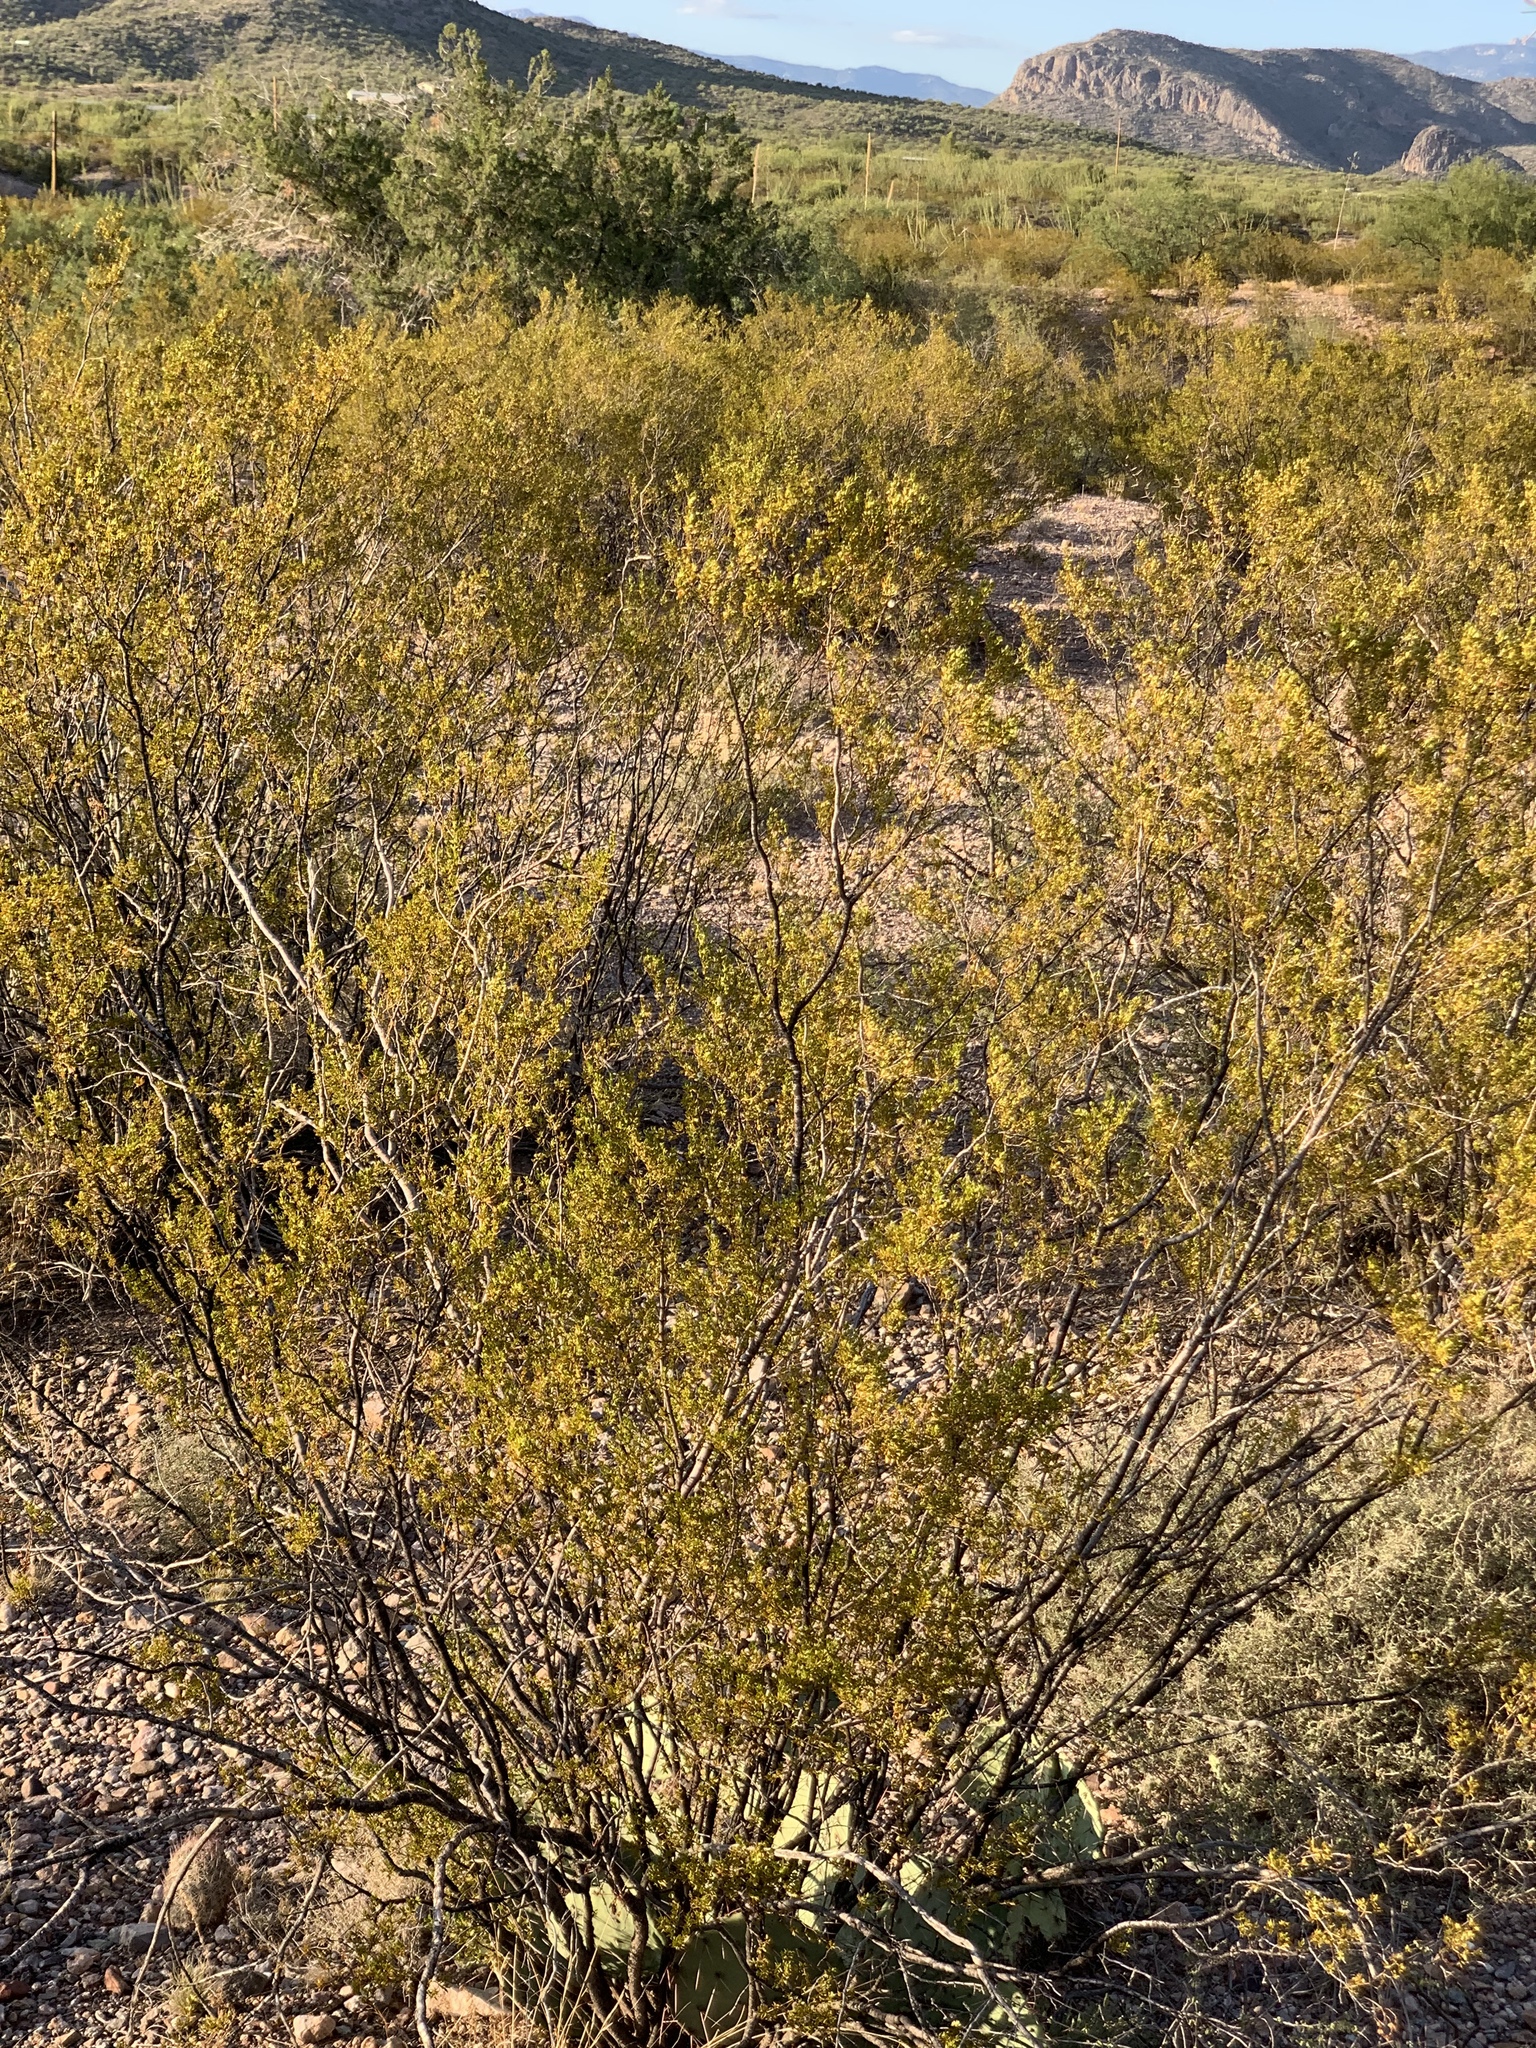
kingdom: Plantae
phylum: Tracheophyta
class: Magnoliopsida
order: Zygophyllales
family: Zygophyllaceae
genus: Larrea
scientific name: Larrea tridentata
